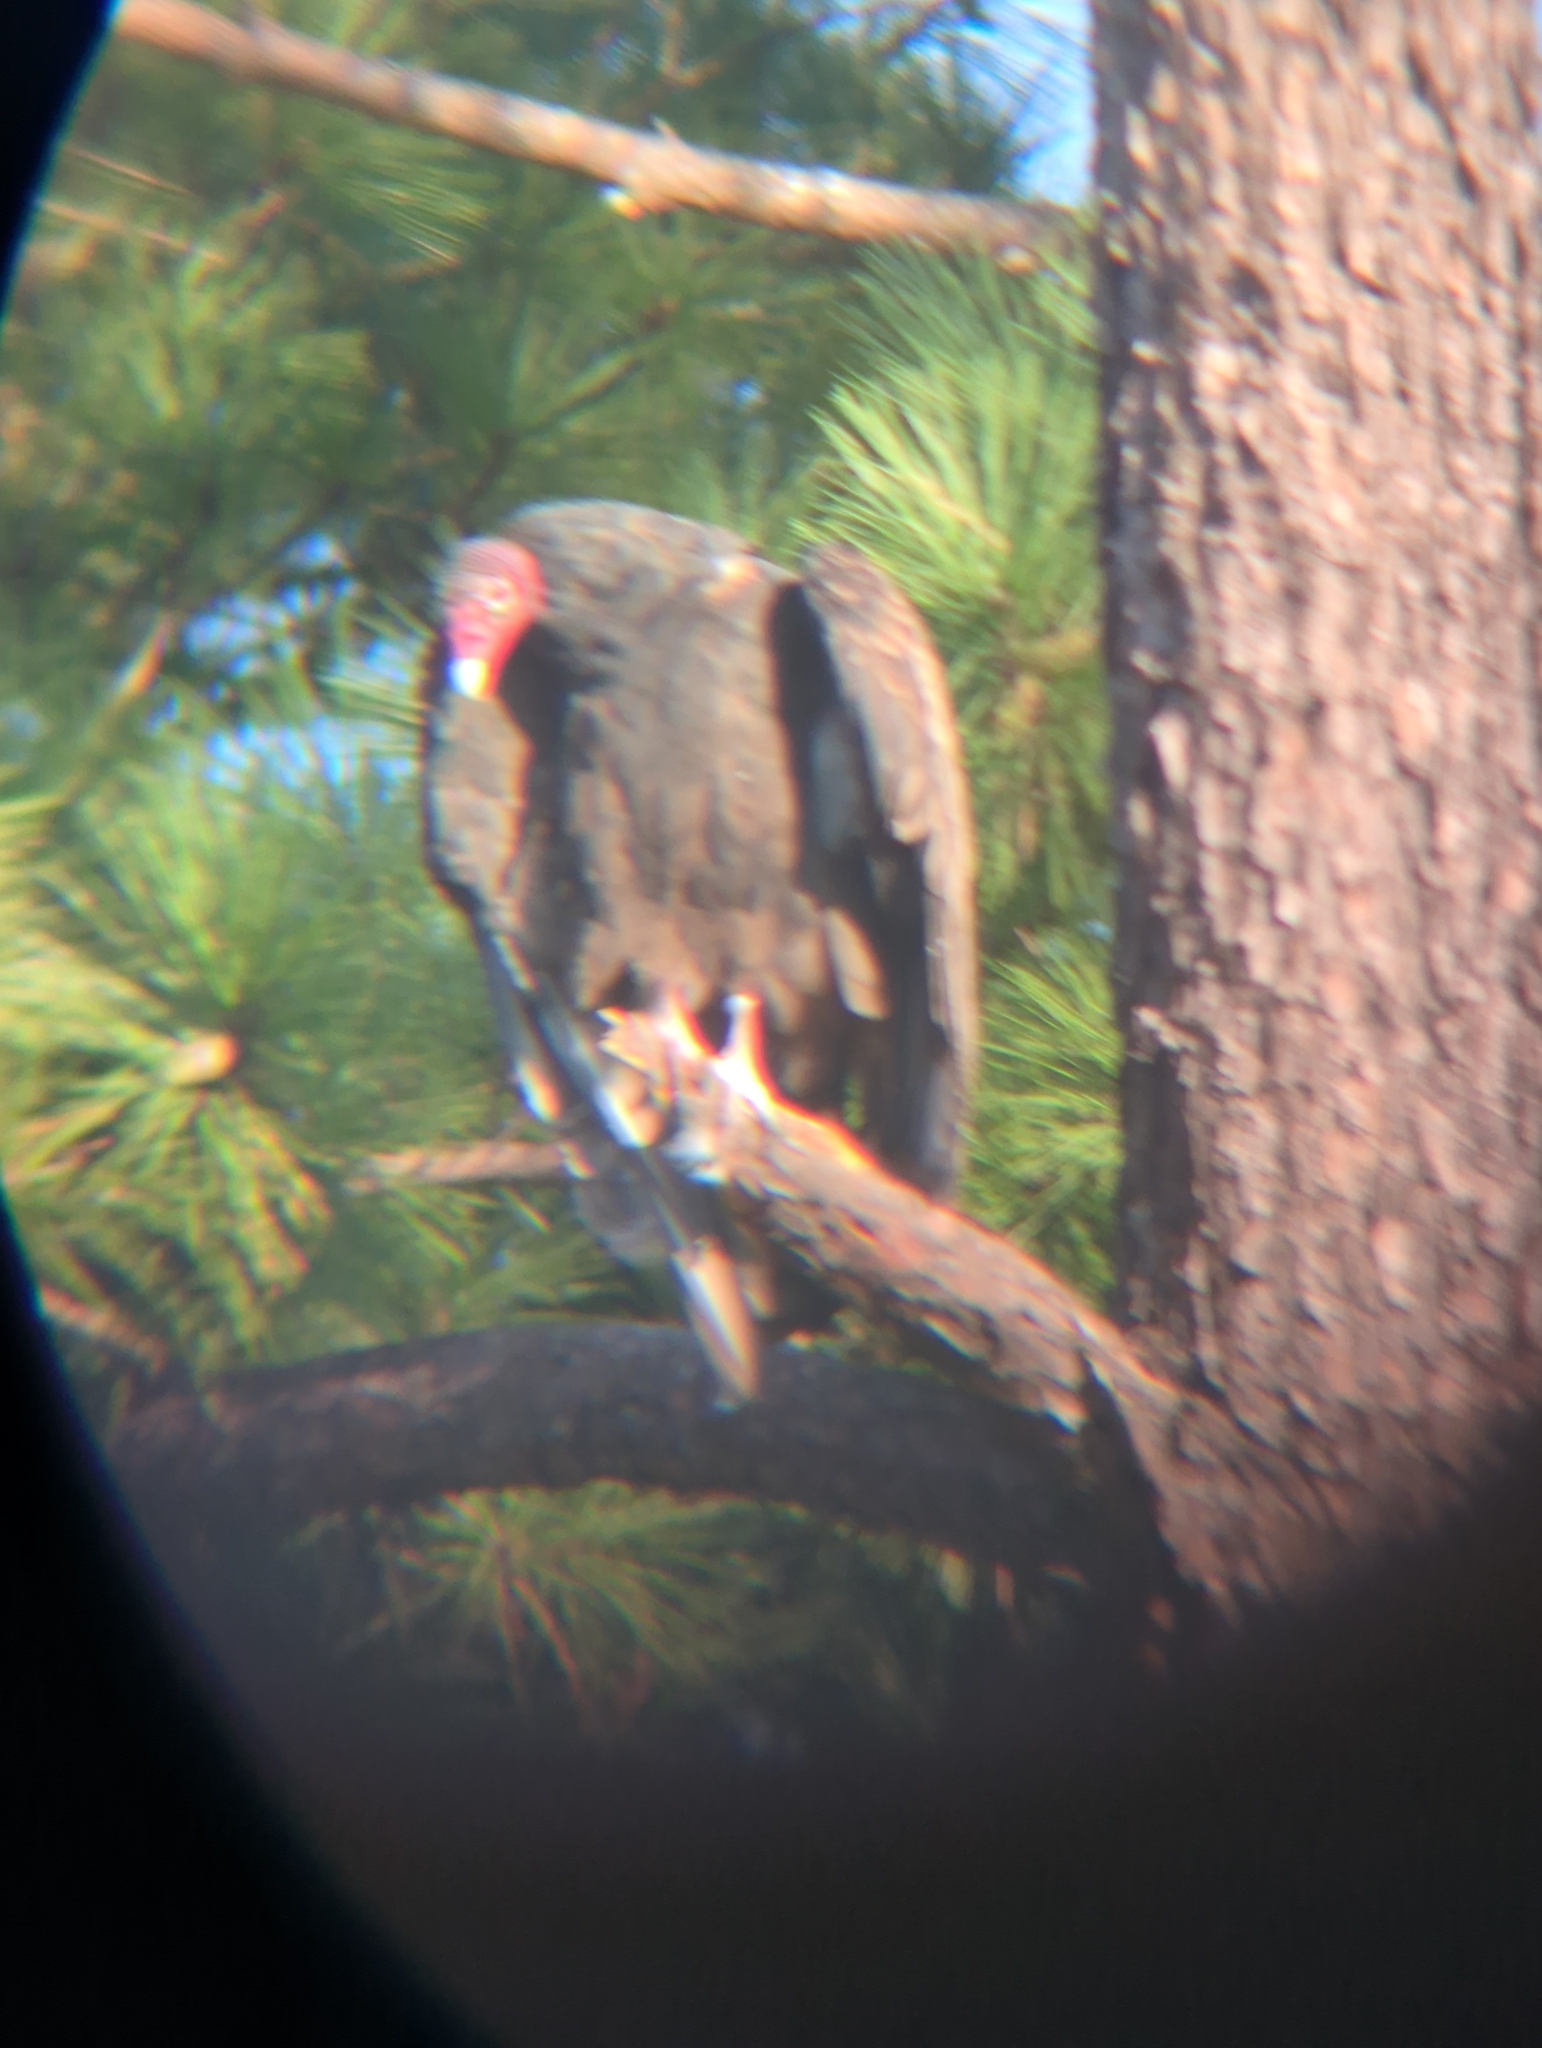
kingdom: Animalia
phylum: Chordata
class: Aves
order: Accipitriformes
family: Cathartidae
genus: Cathartes
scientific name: Cathartes aura
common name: Turkey vulture
